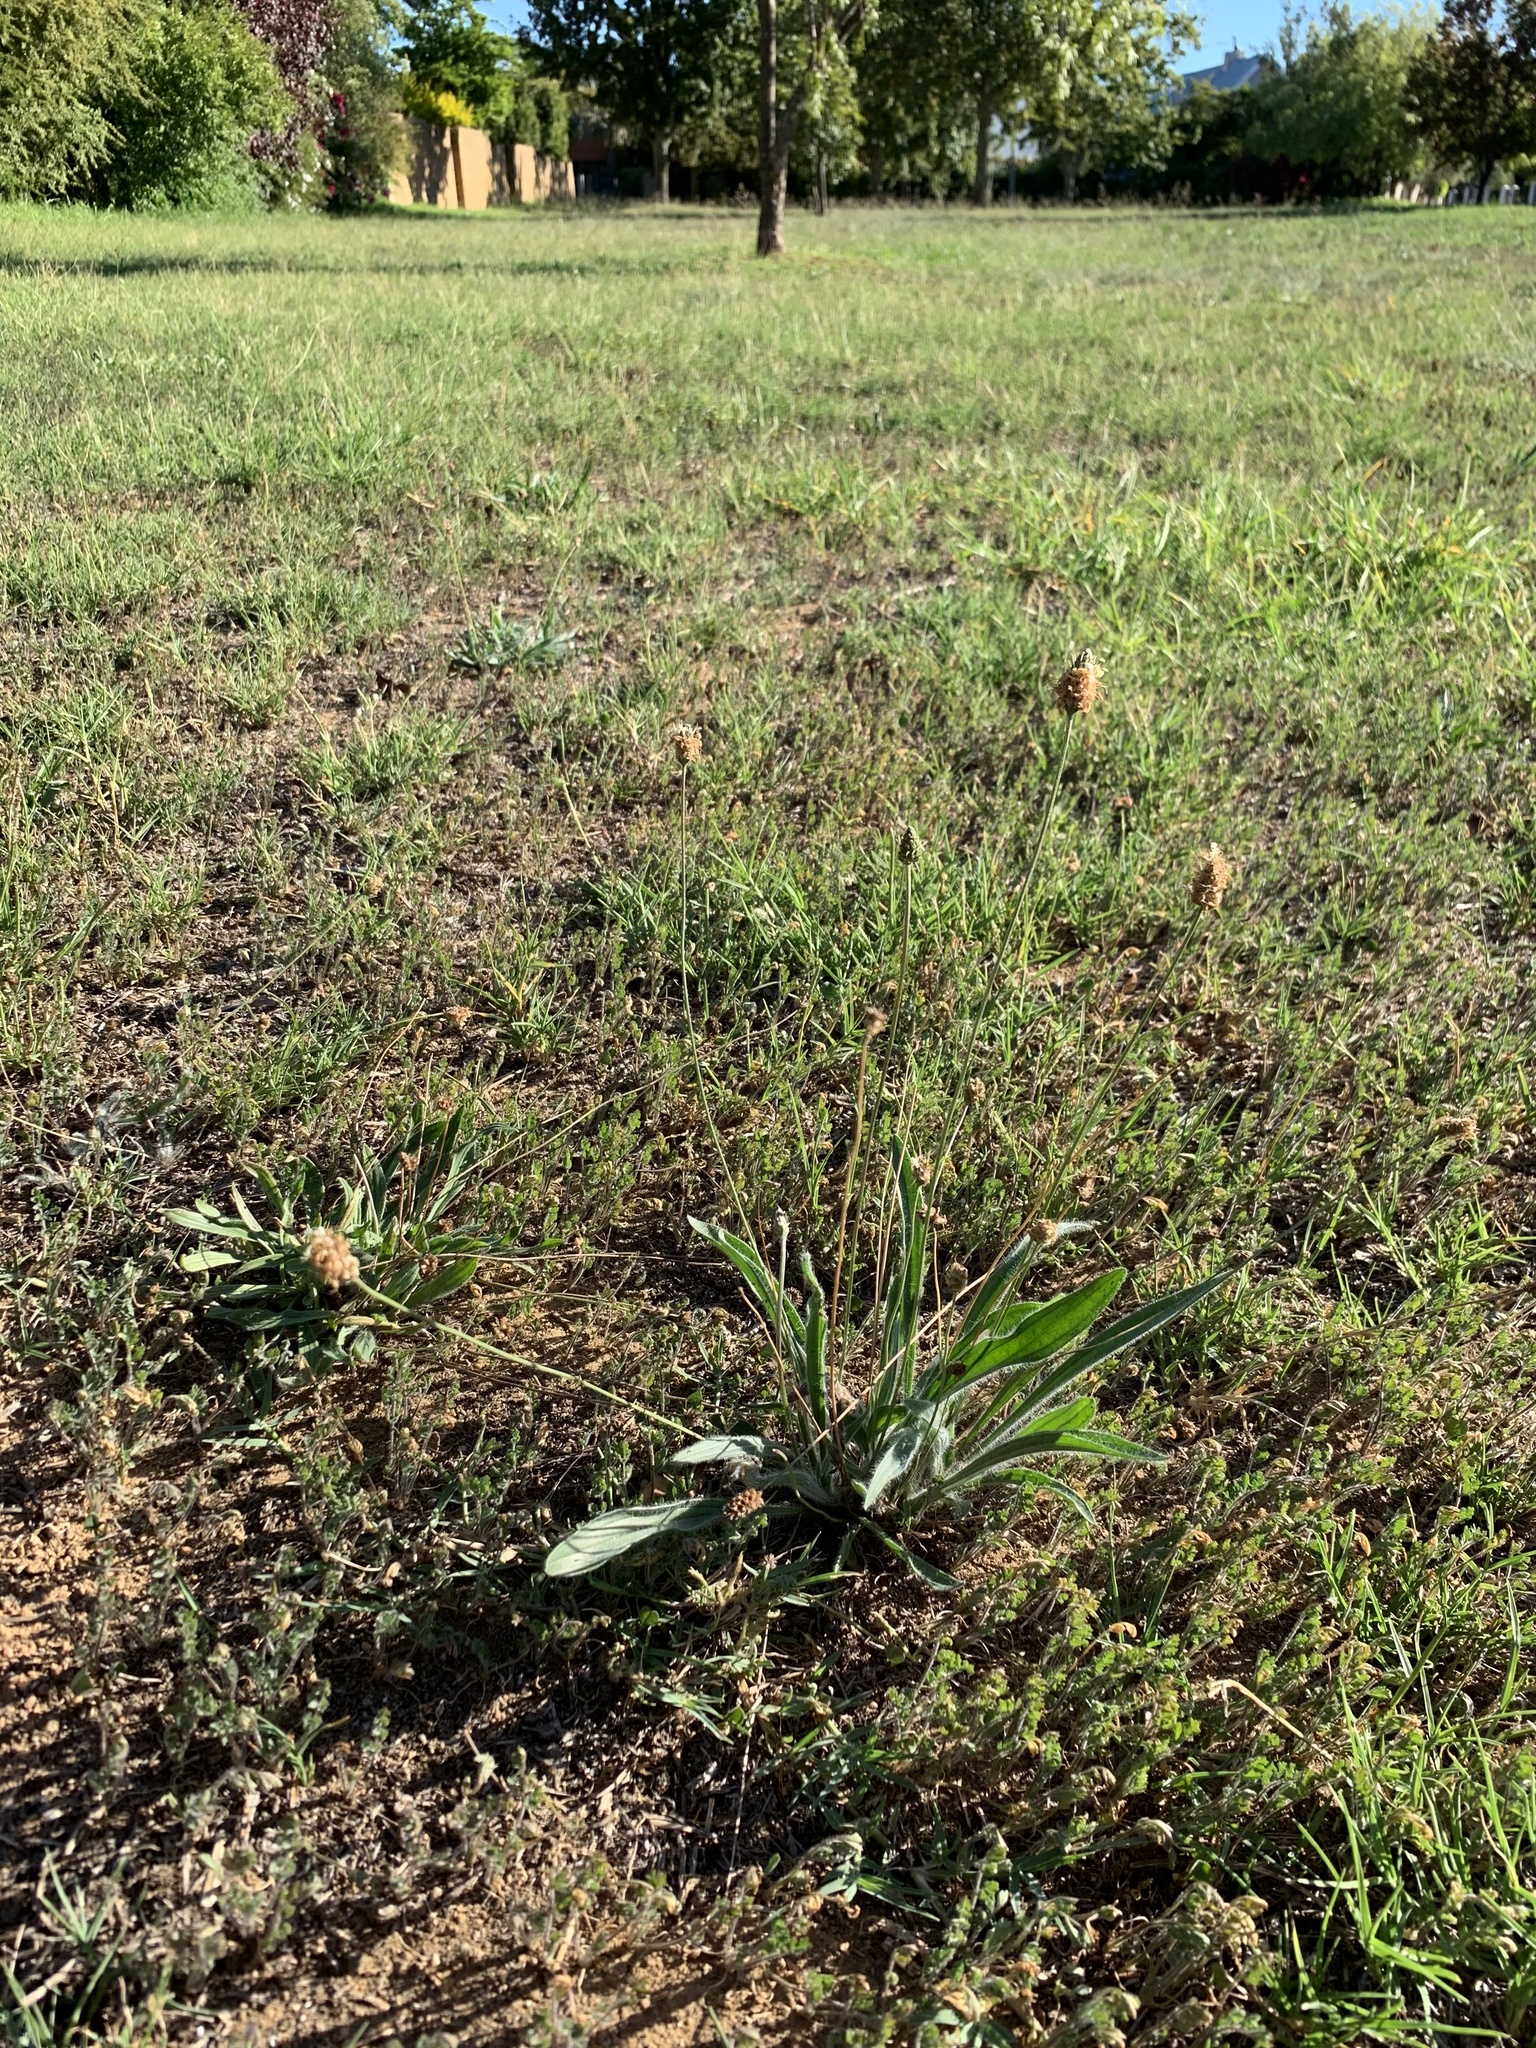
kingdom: Plantae
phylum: Tracheophyta
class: Magnoliopsida
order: Lamiales
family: Plantaginaceae
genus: Plantago
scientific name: Plantago lanceolata
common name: Ribwort plantain
